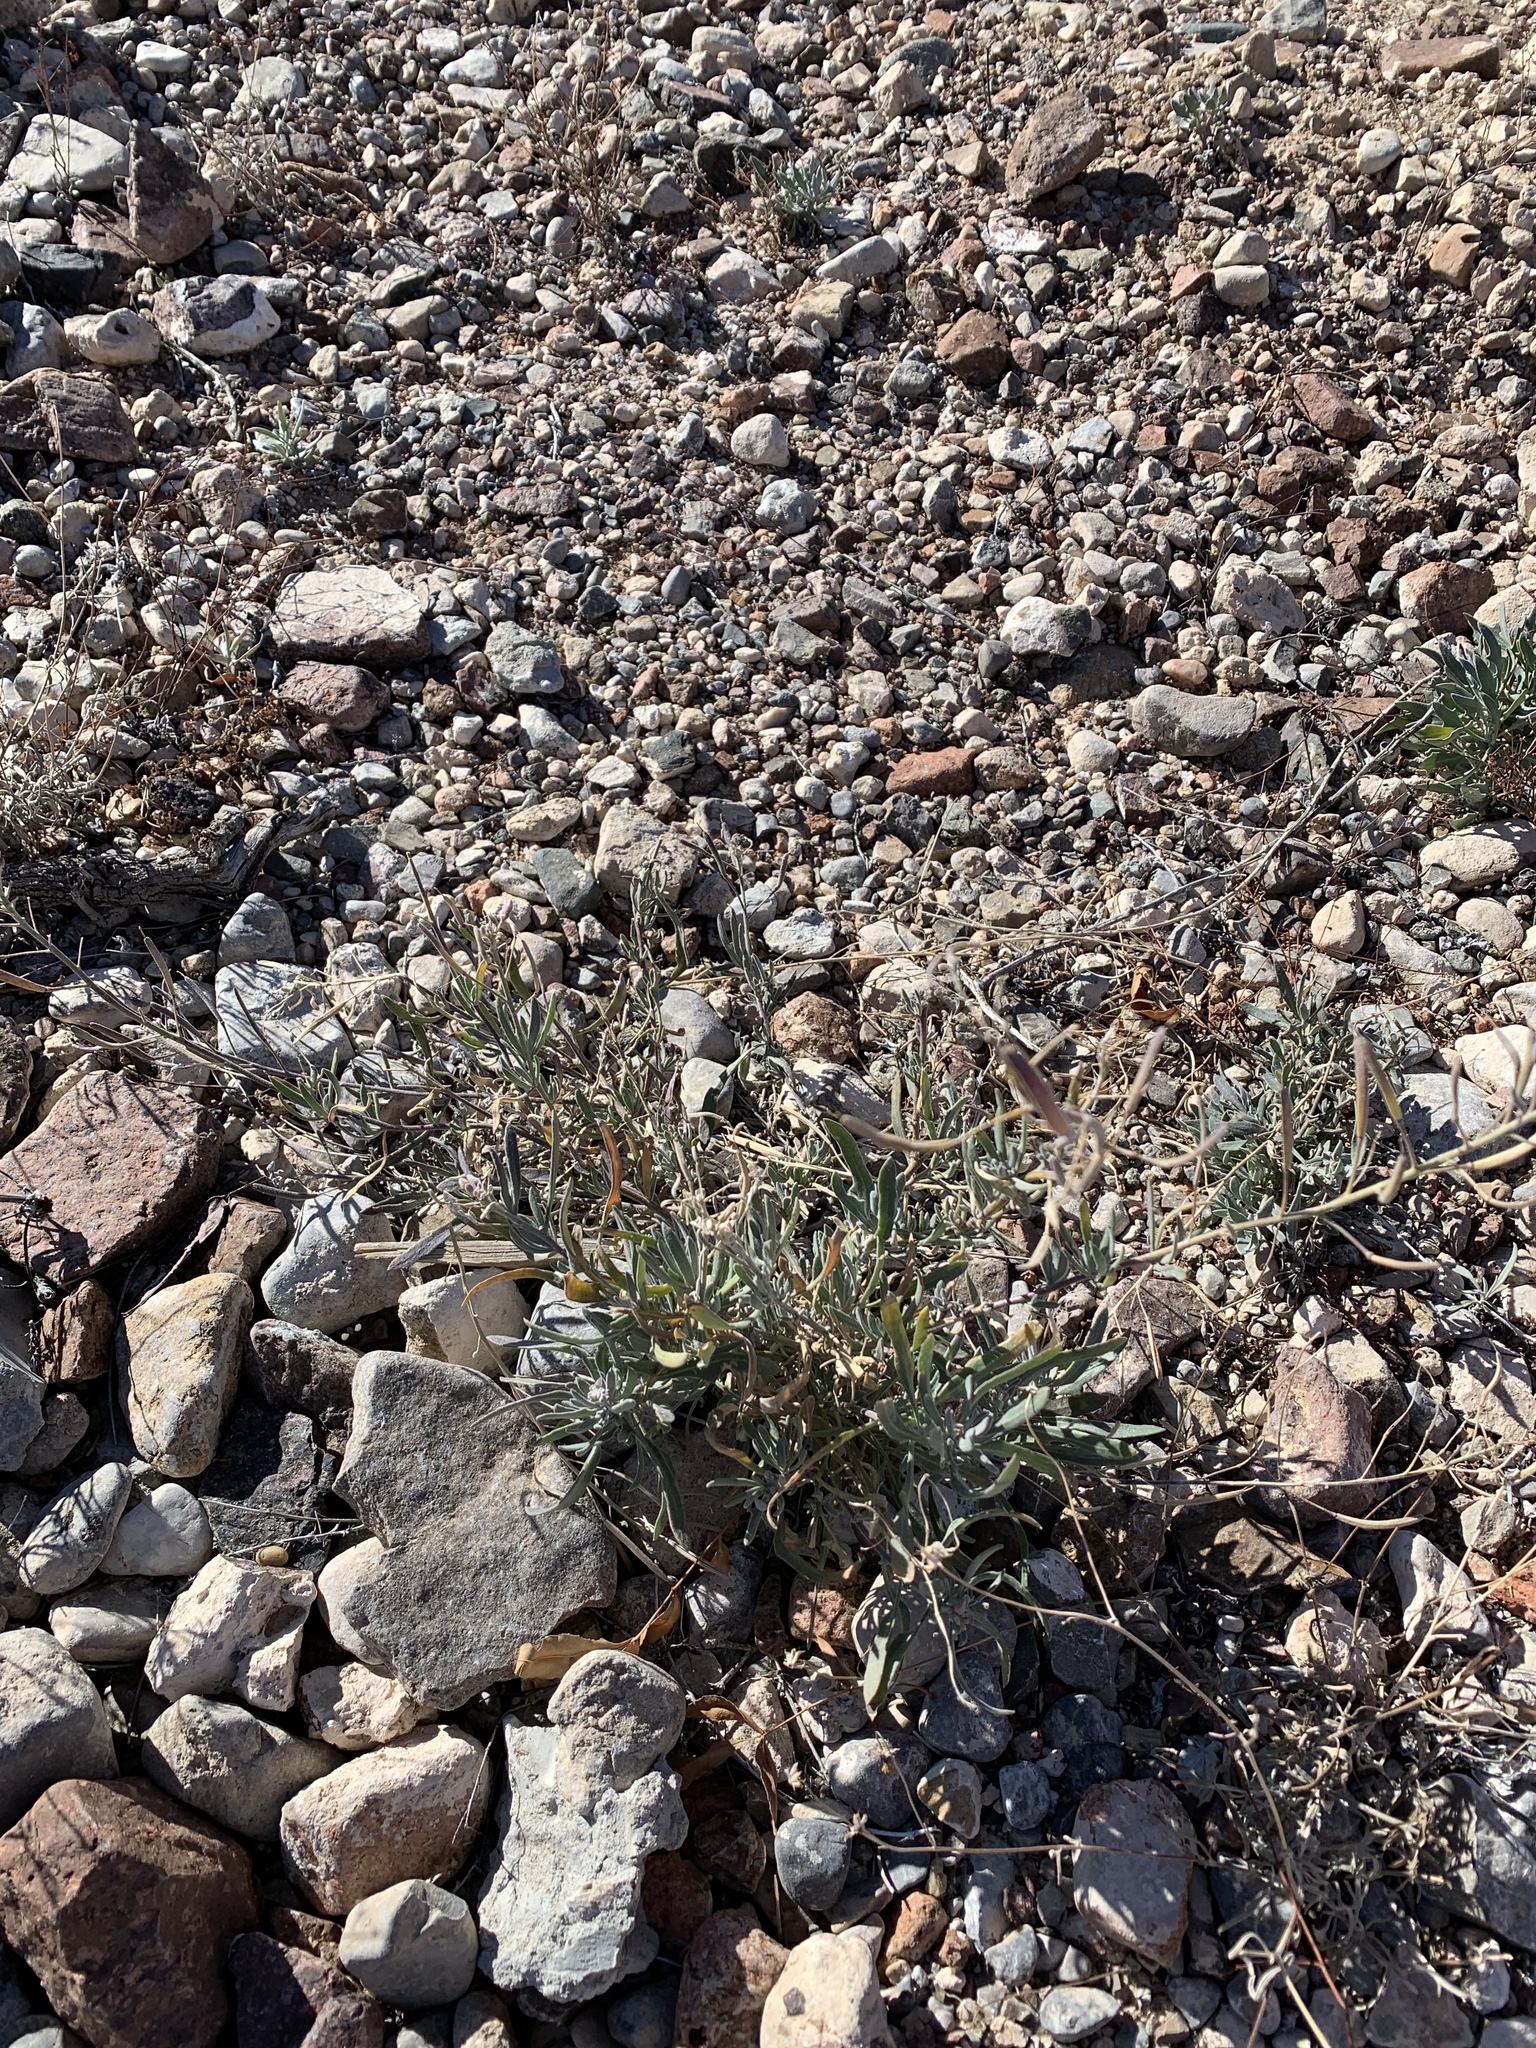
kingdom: Plantae
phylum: Tracheophyta
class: Magnoliopsida
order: Brassicales
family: Brassicaceae
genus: Nerisyrenia
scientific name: Nerisyrenia camporum
